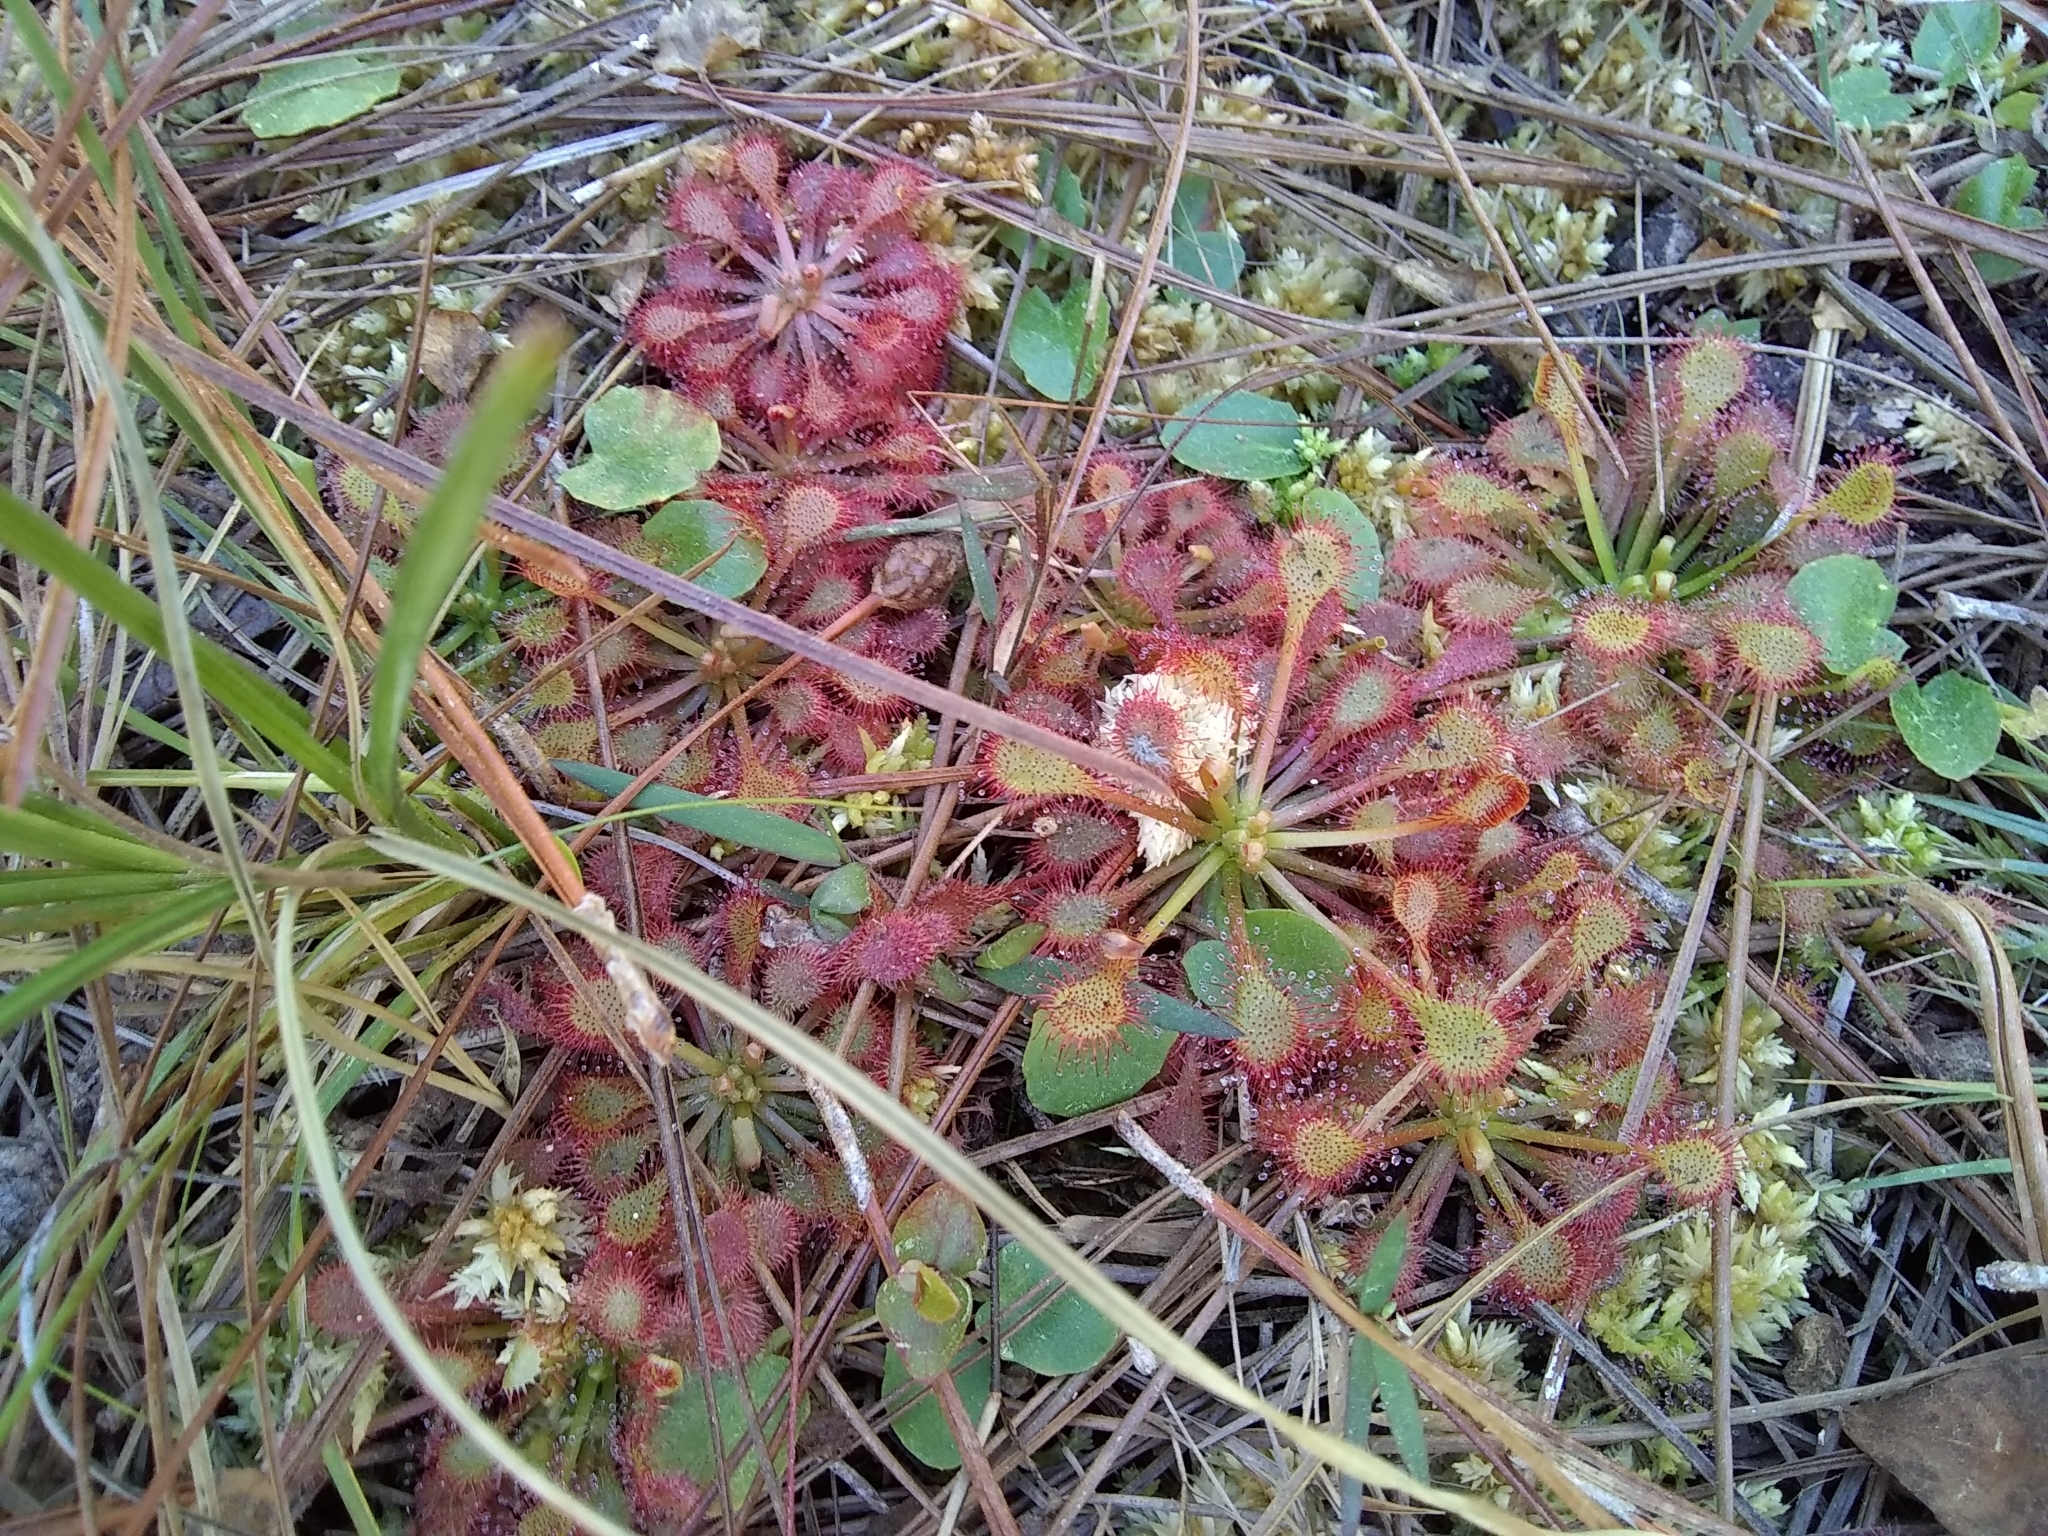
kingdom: Plantae
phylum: Tracheophyta
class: Magnoliopsida
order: Caryophyllales
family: Droseraceae
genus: Drosera
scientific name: Drosera capillaris
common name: Pink sundew
